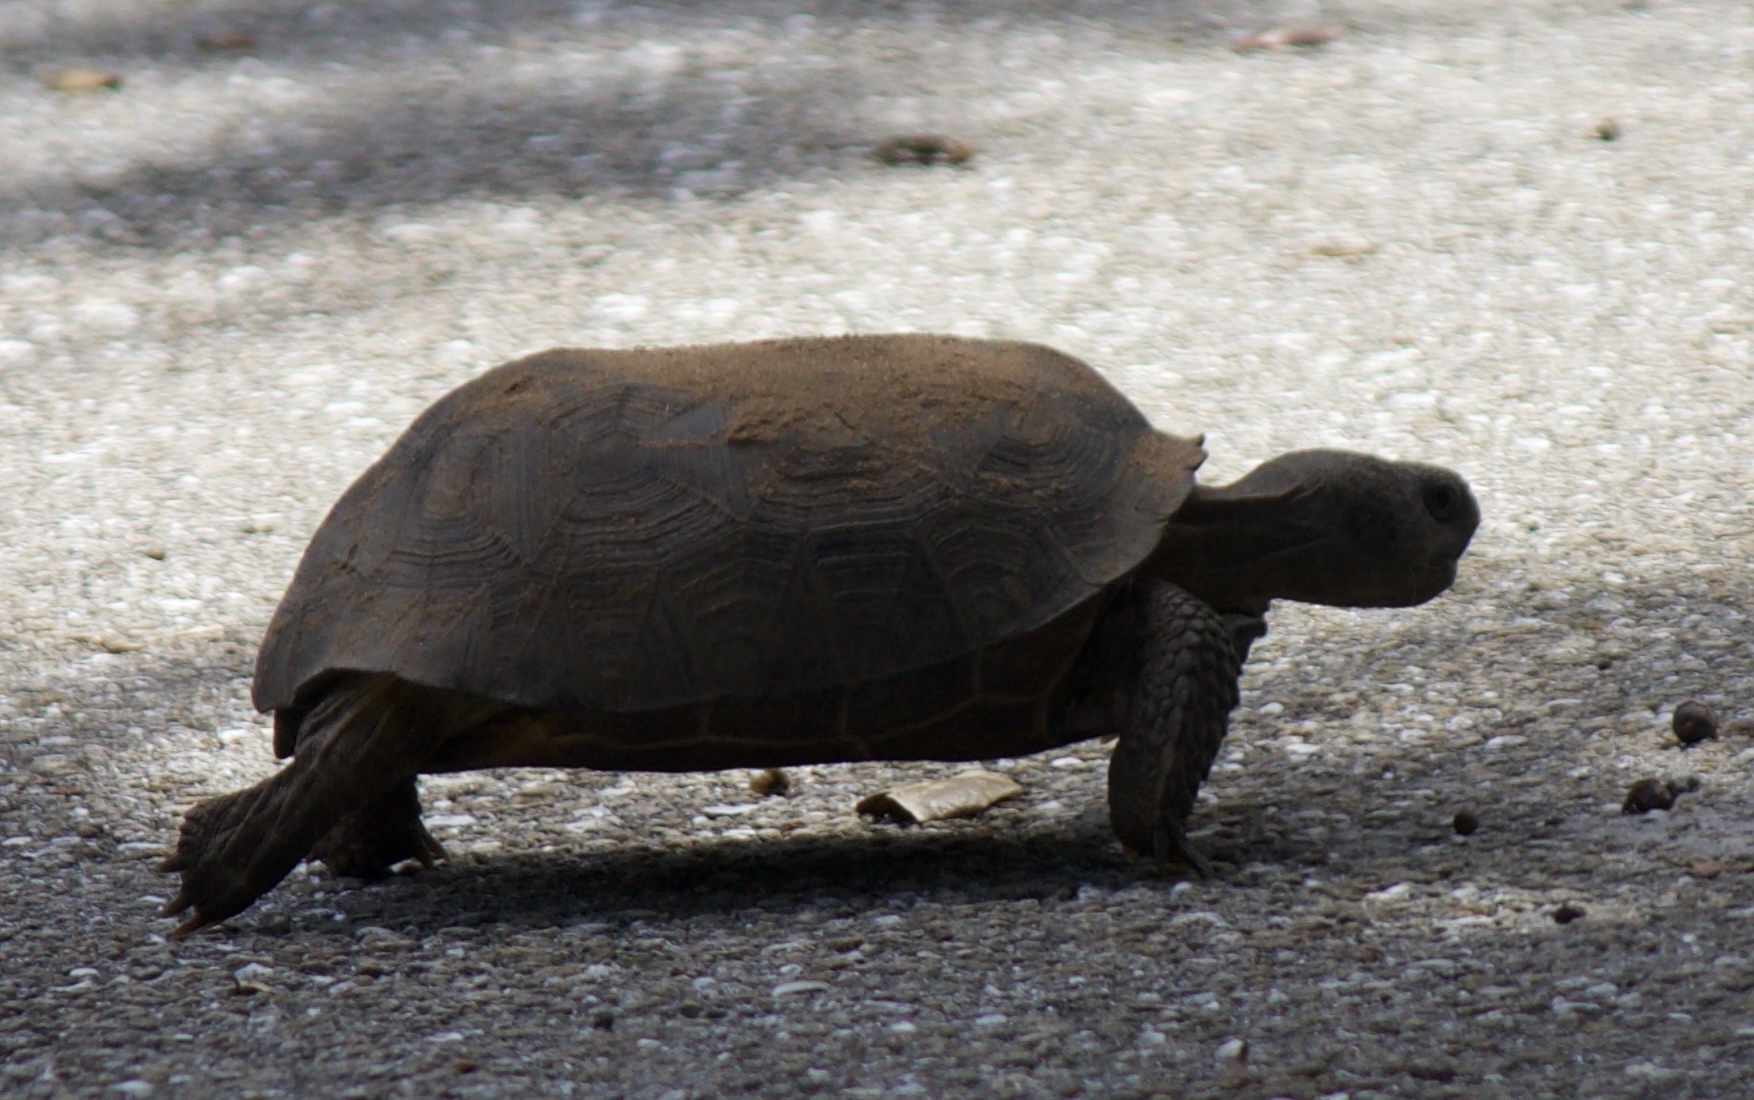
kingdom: Animalia
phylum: Chordata
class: Testudines
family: Testudinidae
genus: Gopherus
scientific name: Gopherus polyphemus
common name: Florida gopher tortoise
